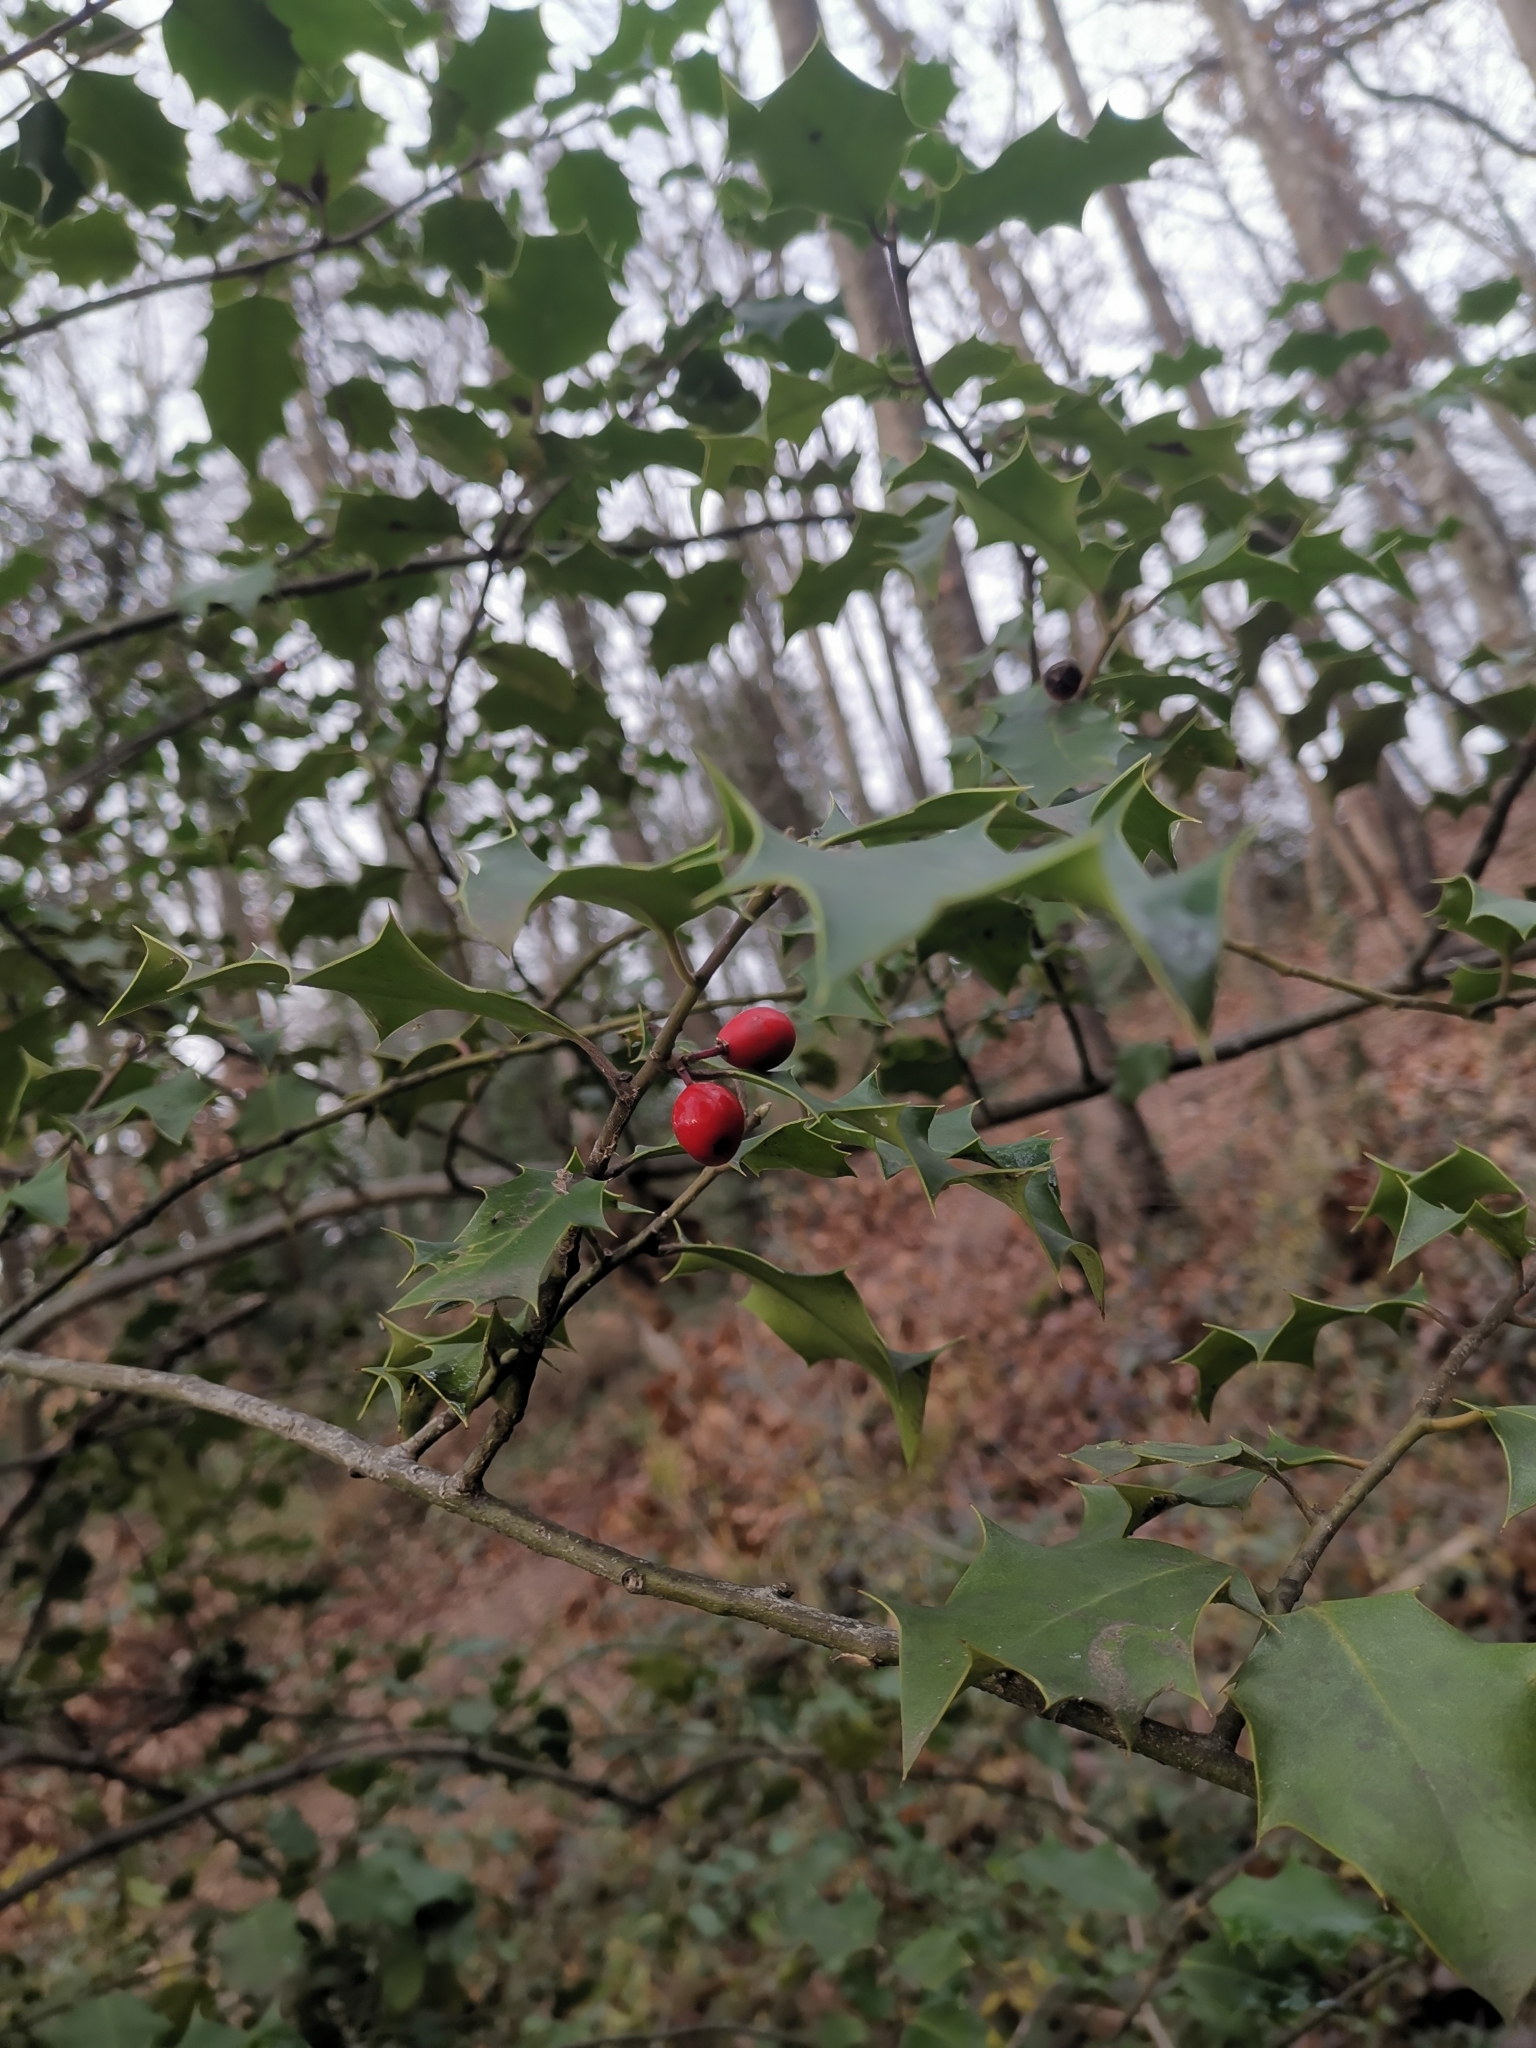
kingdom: Plantae
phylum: Tracheophyta
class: Magnoliopsida
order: Aquifoliales
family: Aquifoliaceae
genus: Ilex
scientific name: Ilex aquifolium
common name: English holly
